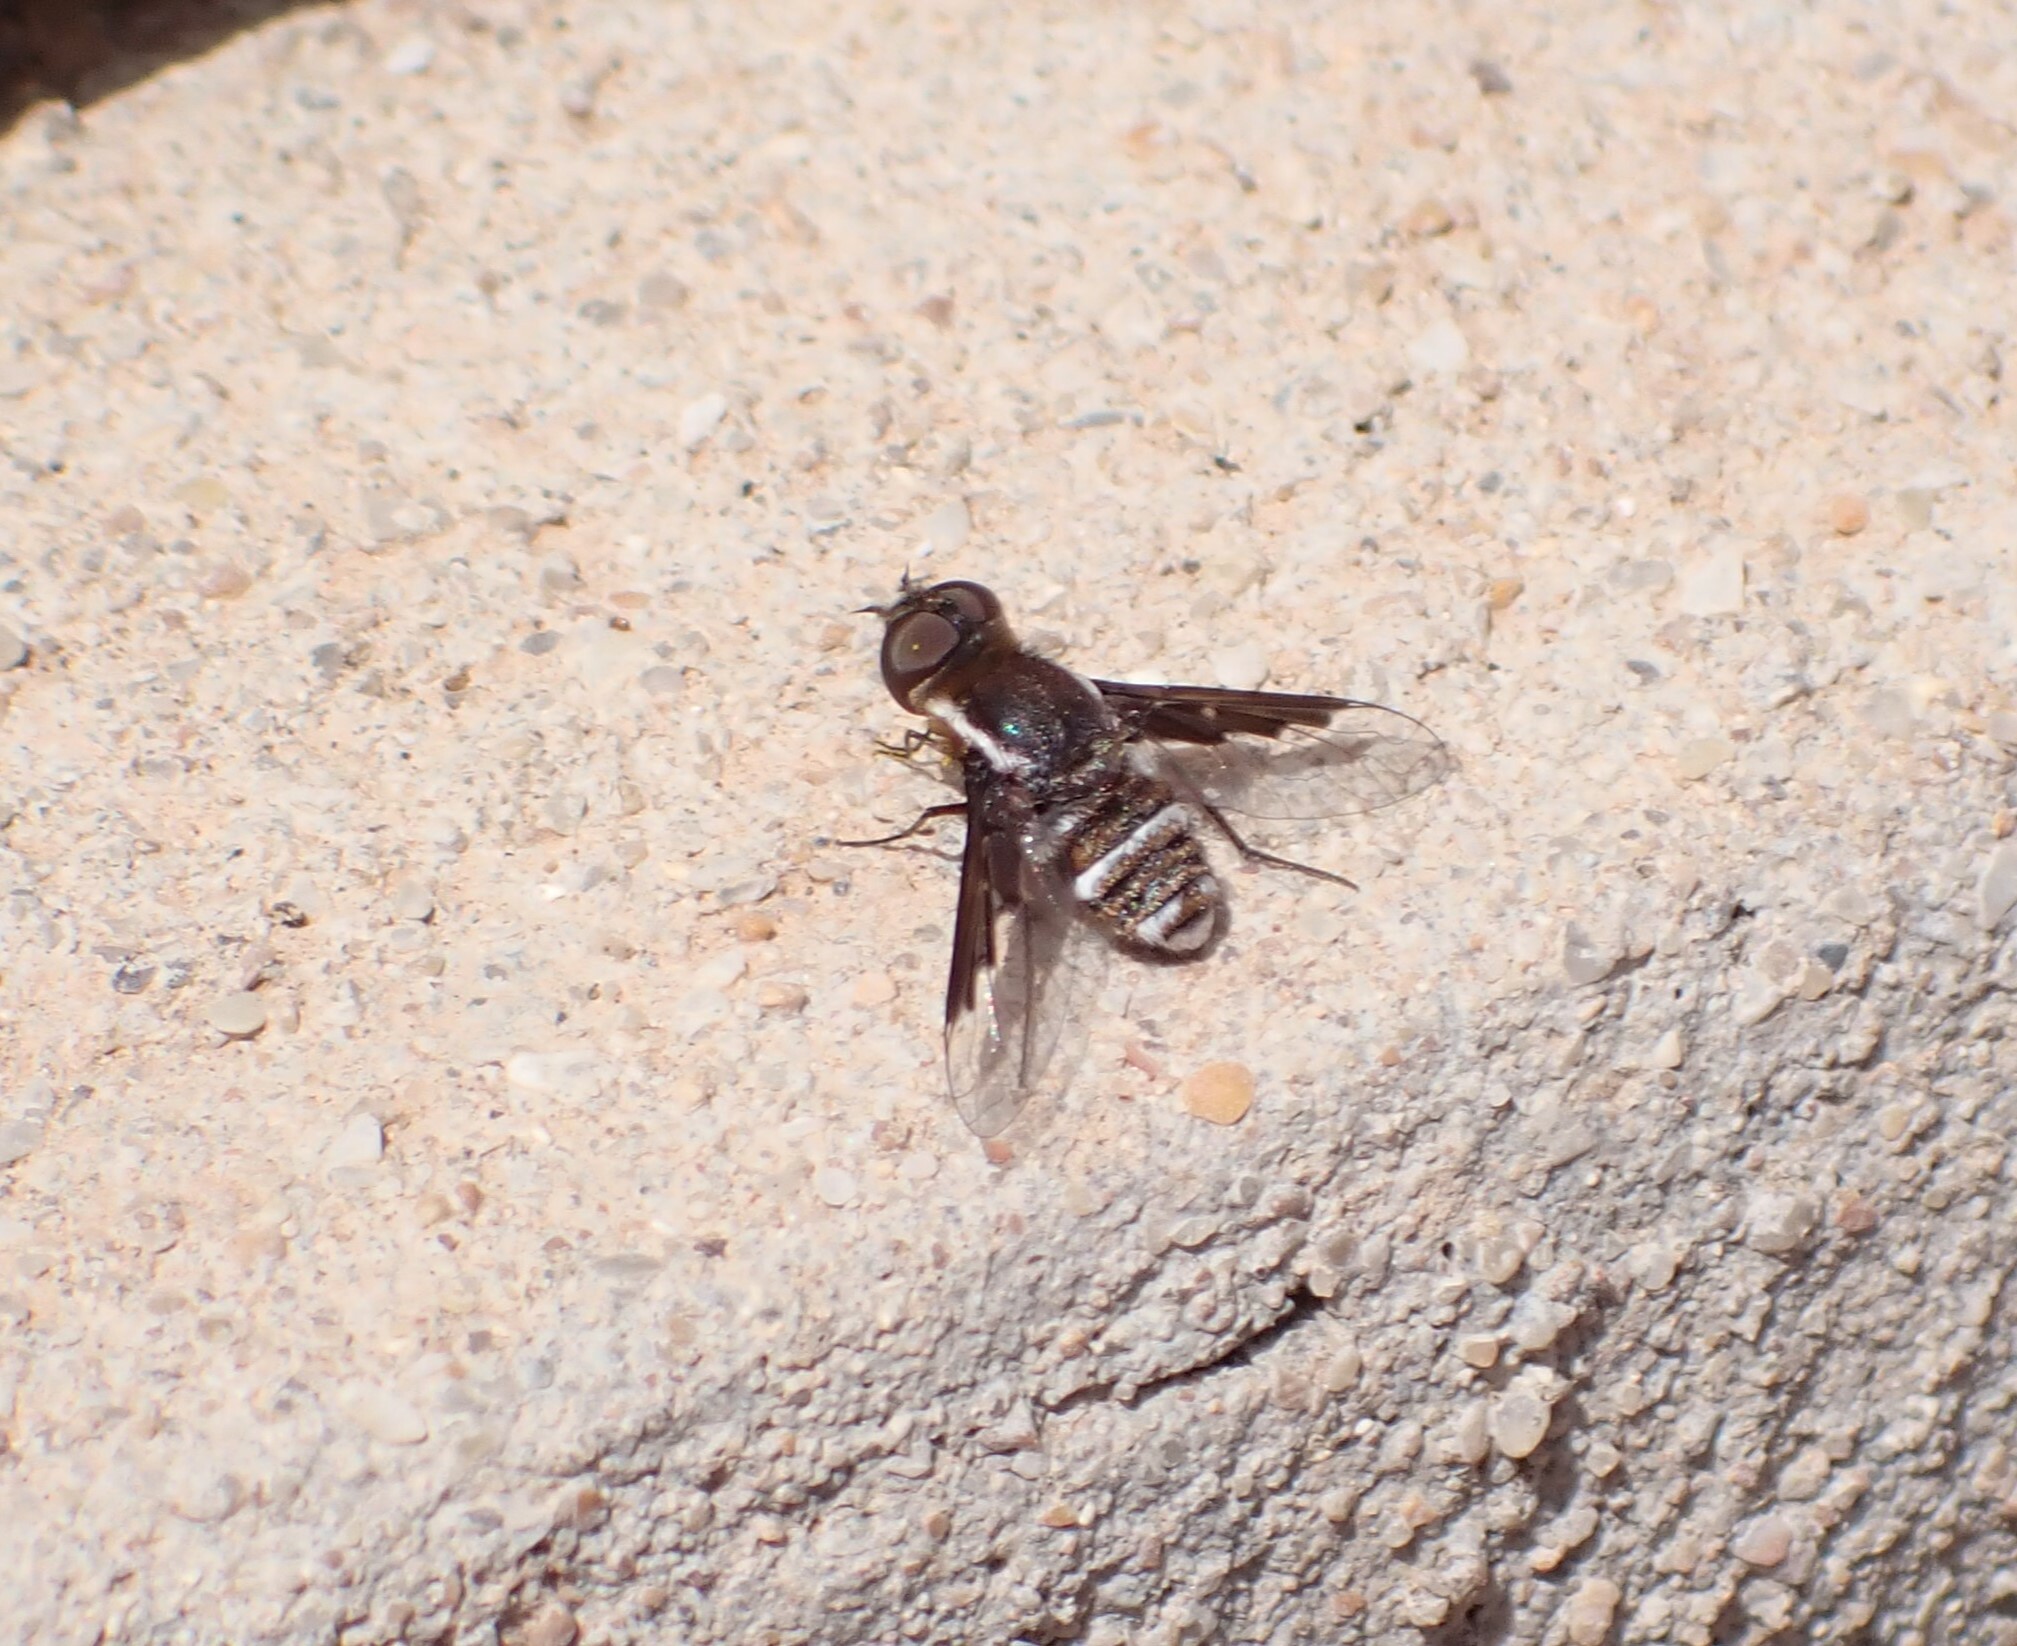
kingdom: Animalia
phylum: Arthropoda
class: Insecta
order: Diptera
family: Bombyliidae
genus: Exhyalanthrax
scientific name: Exhyalanthrax simonae
